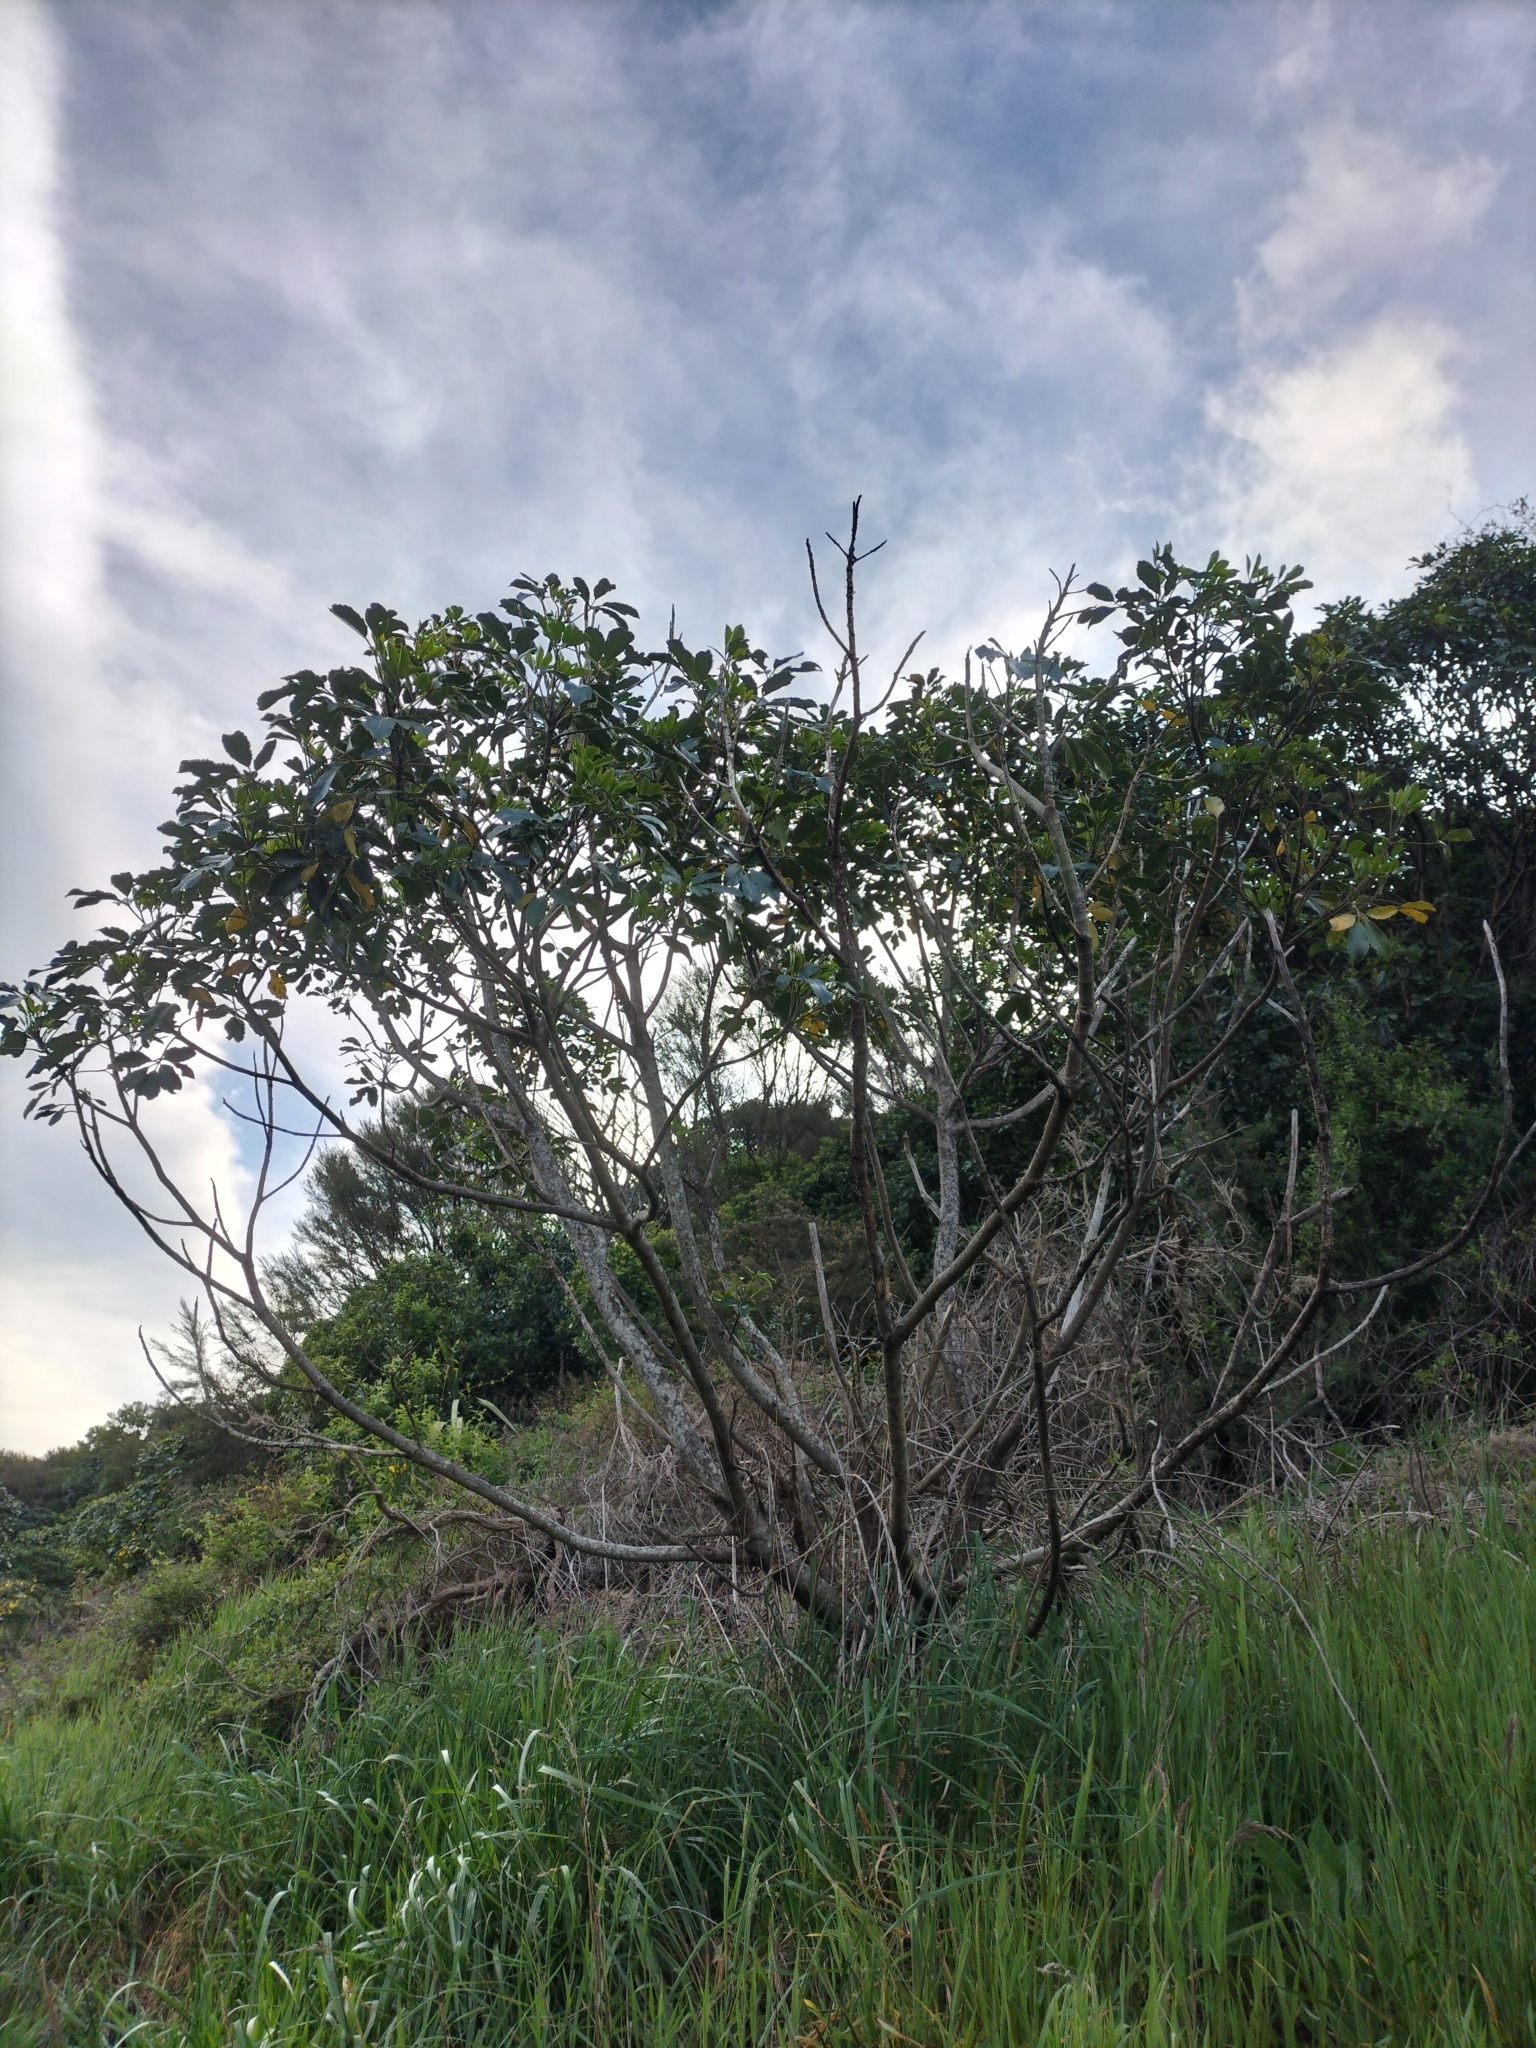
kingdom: Plantae
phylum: Tracheophyta
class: Magnoliopsida
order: Apiales
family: Araliaceae
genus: Neopanax
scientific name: Neopanax arboreus
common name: Five-fingers
